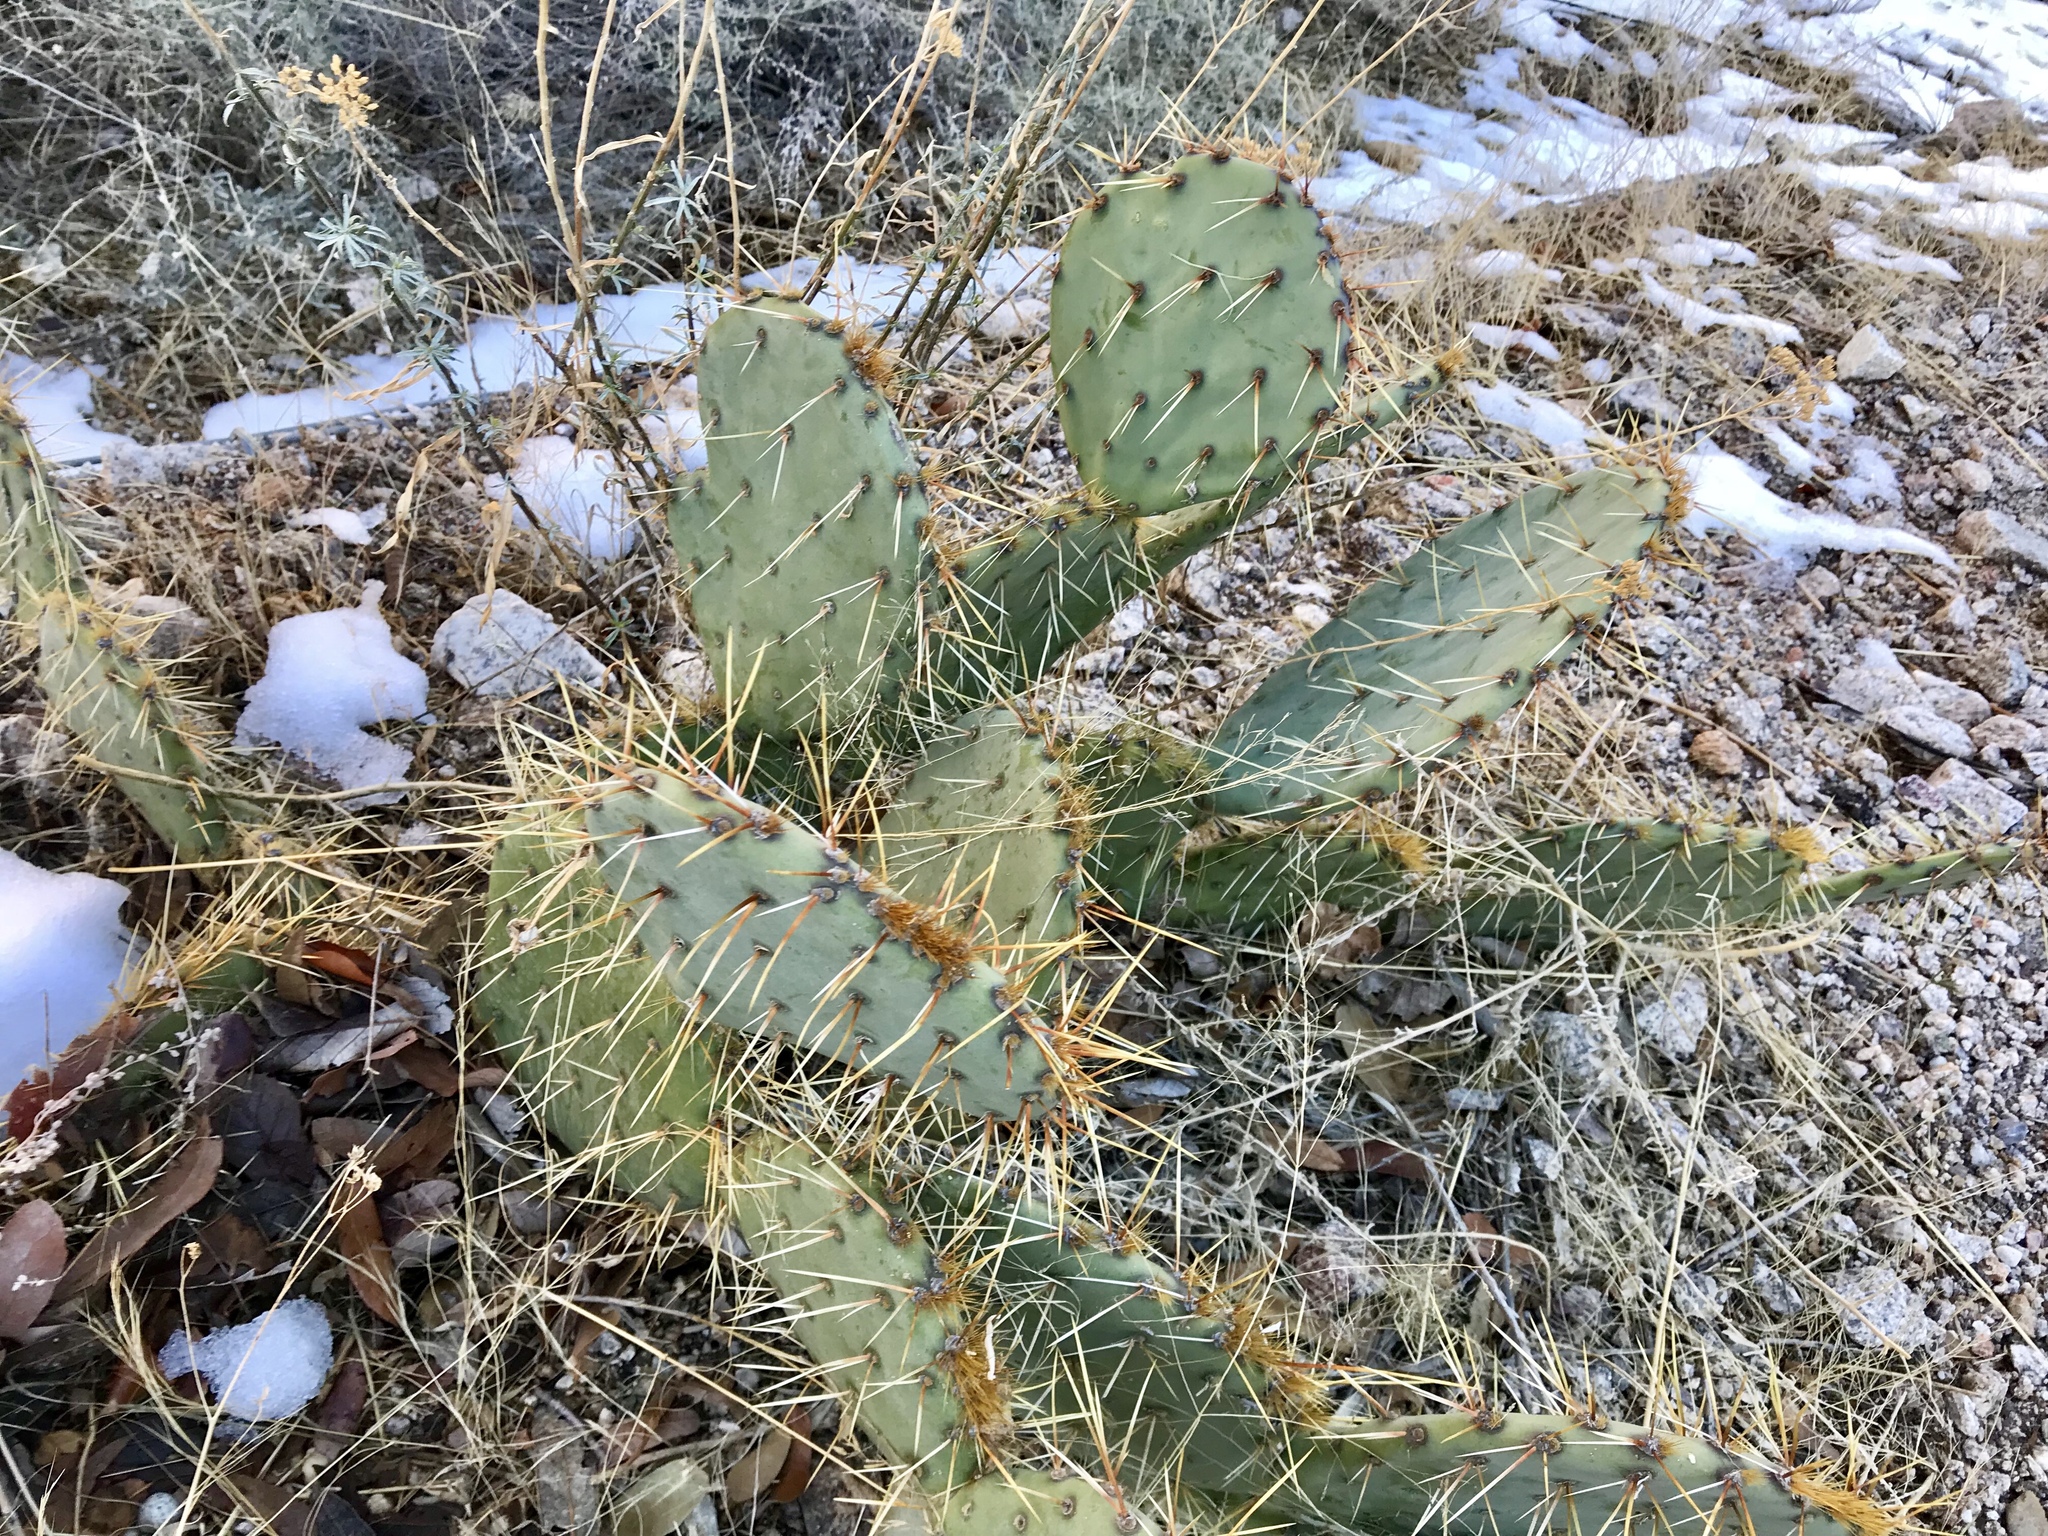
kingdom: Plantae
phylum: Tracheophyta
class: Magnoliopsida
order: Caryophyllales
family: Cactaceae
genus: Opuntia
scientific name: Opuntia engelmannii
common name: Cactus-apple
